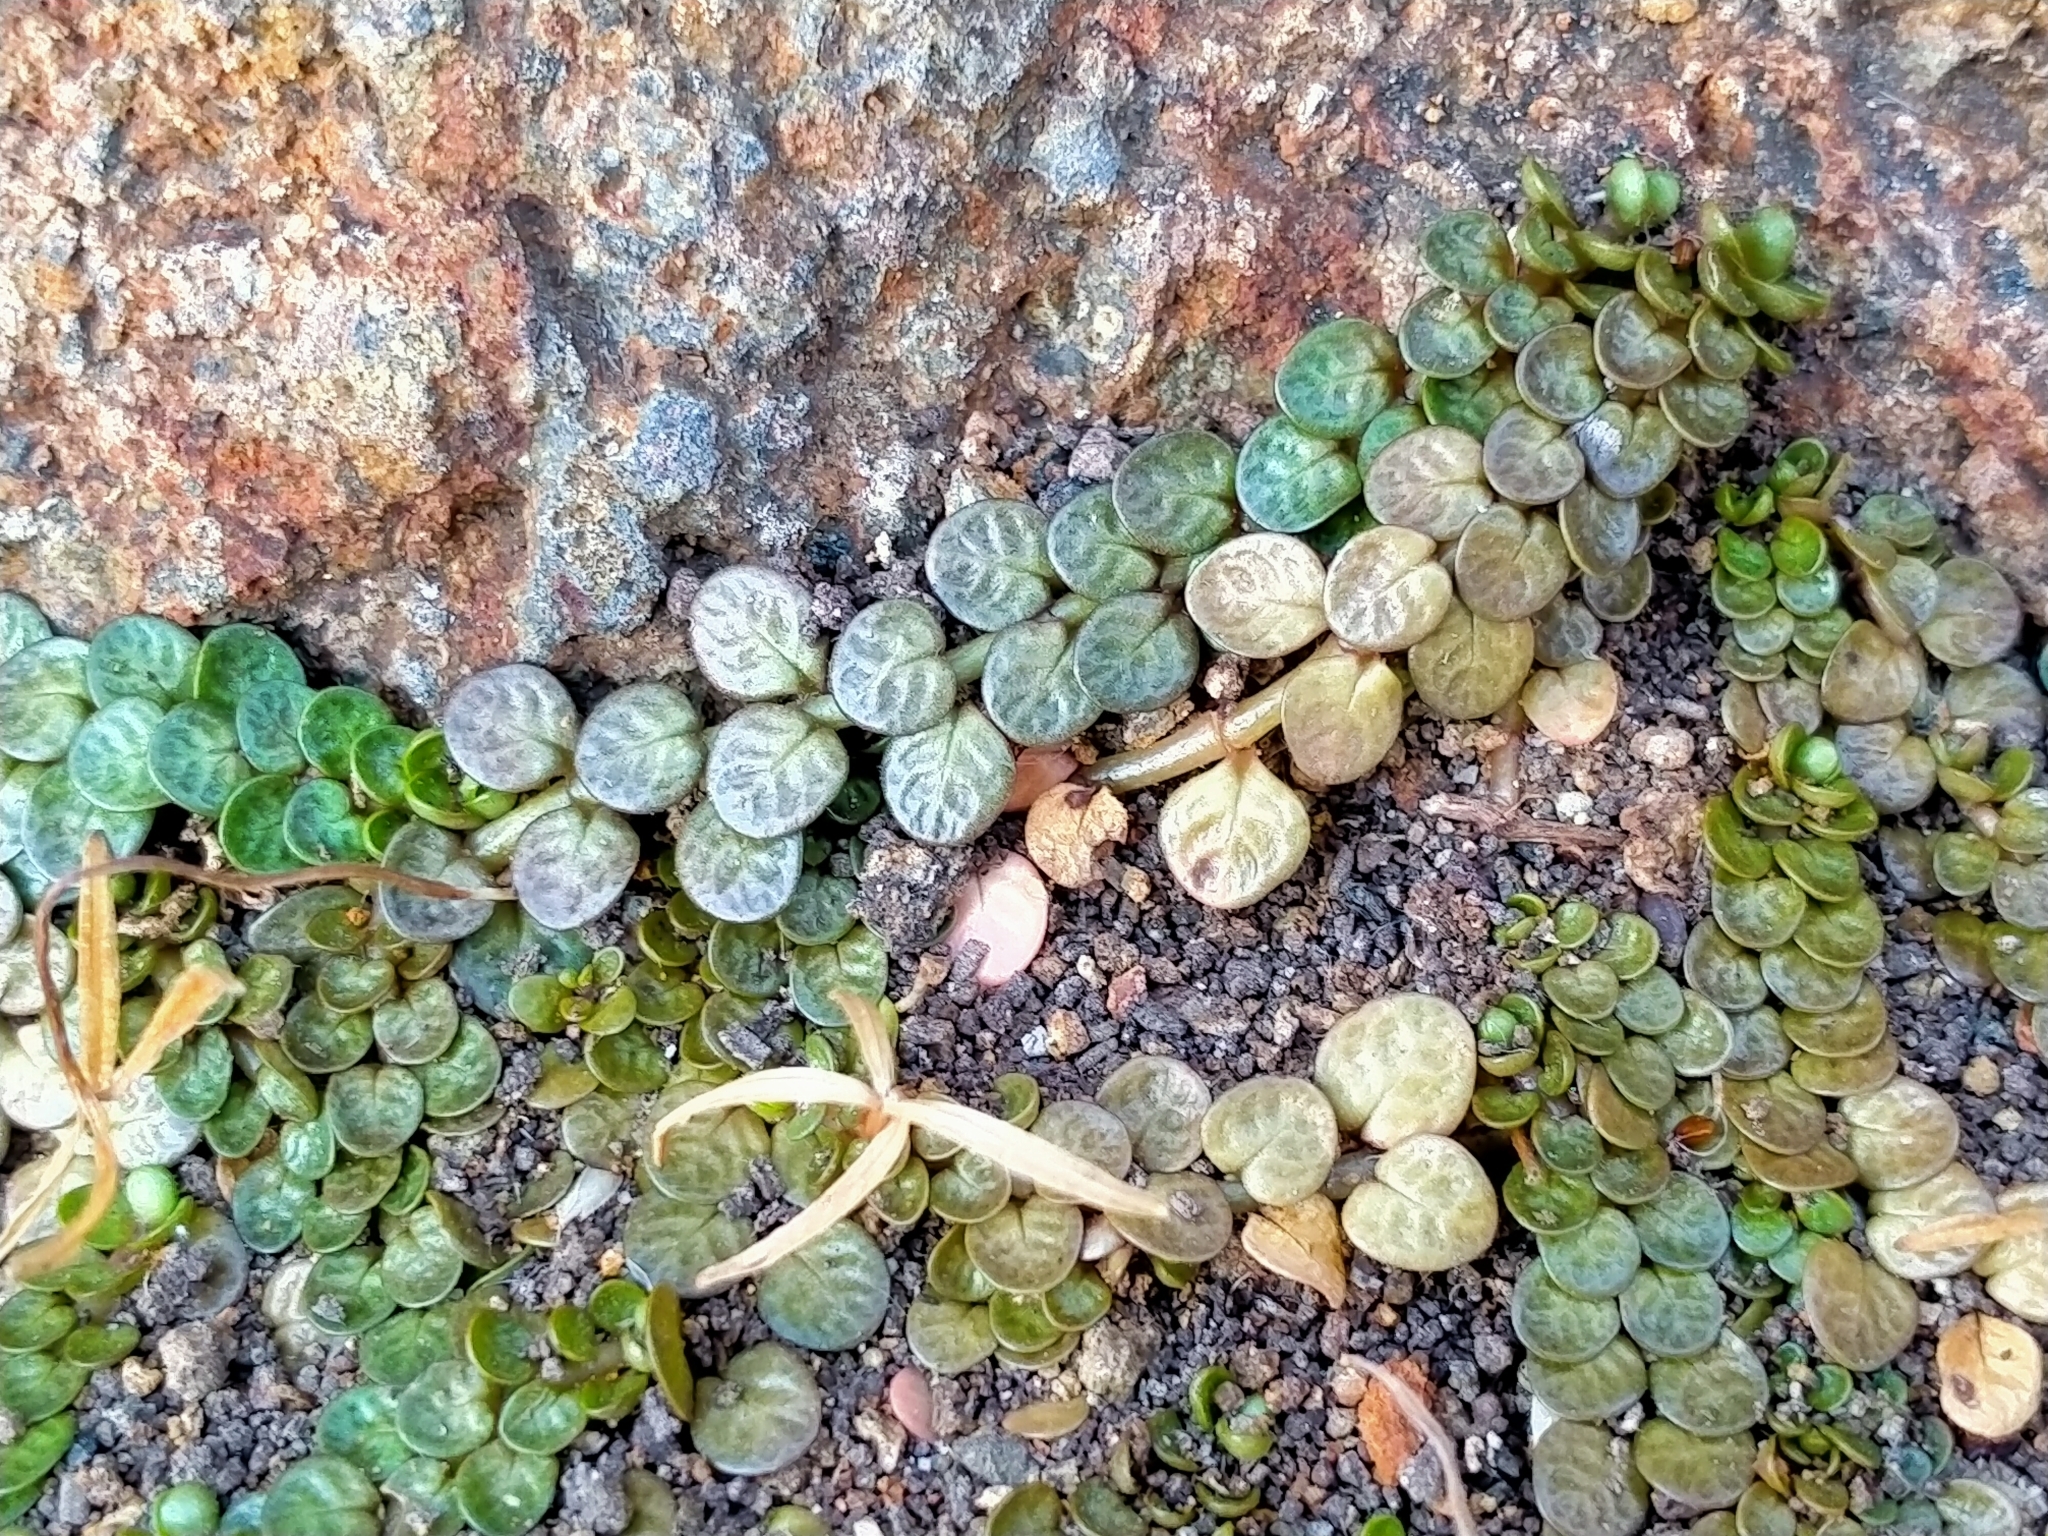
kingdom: Plantae
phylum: Tracheophyta
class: Magnoliopsida
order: Myrtales
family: Onagraceae
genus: Epilobium
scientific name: Epilobium komarovianum
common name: Bronzy willowherb
